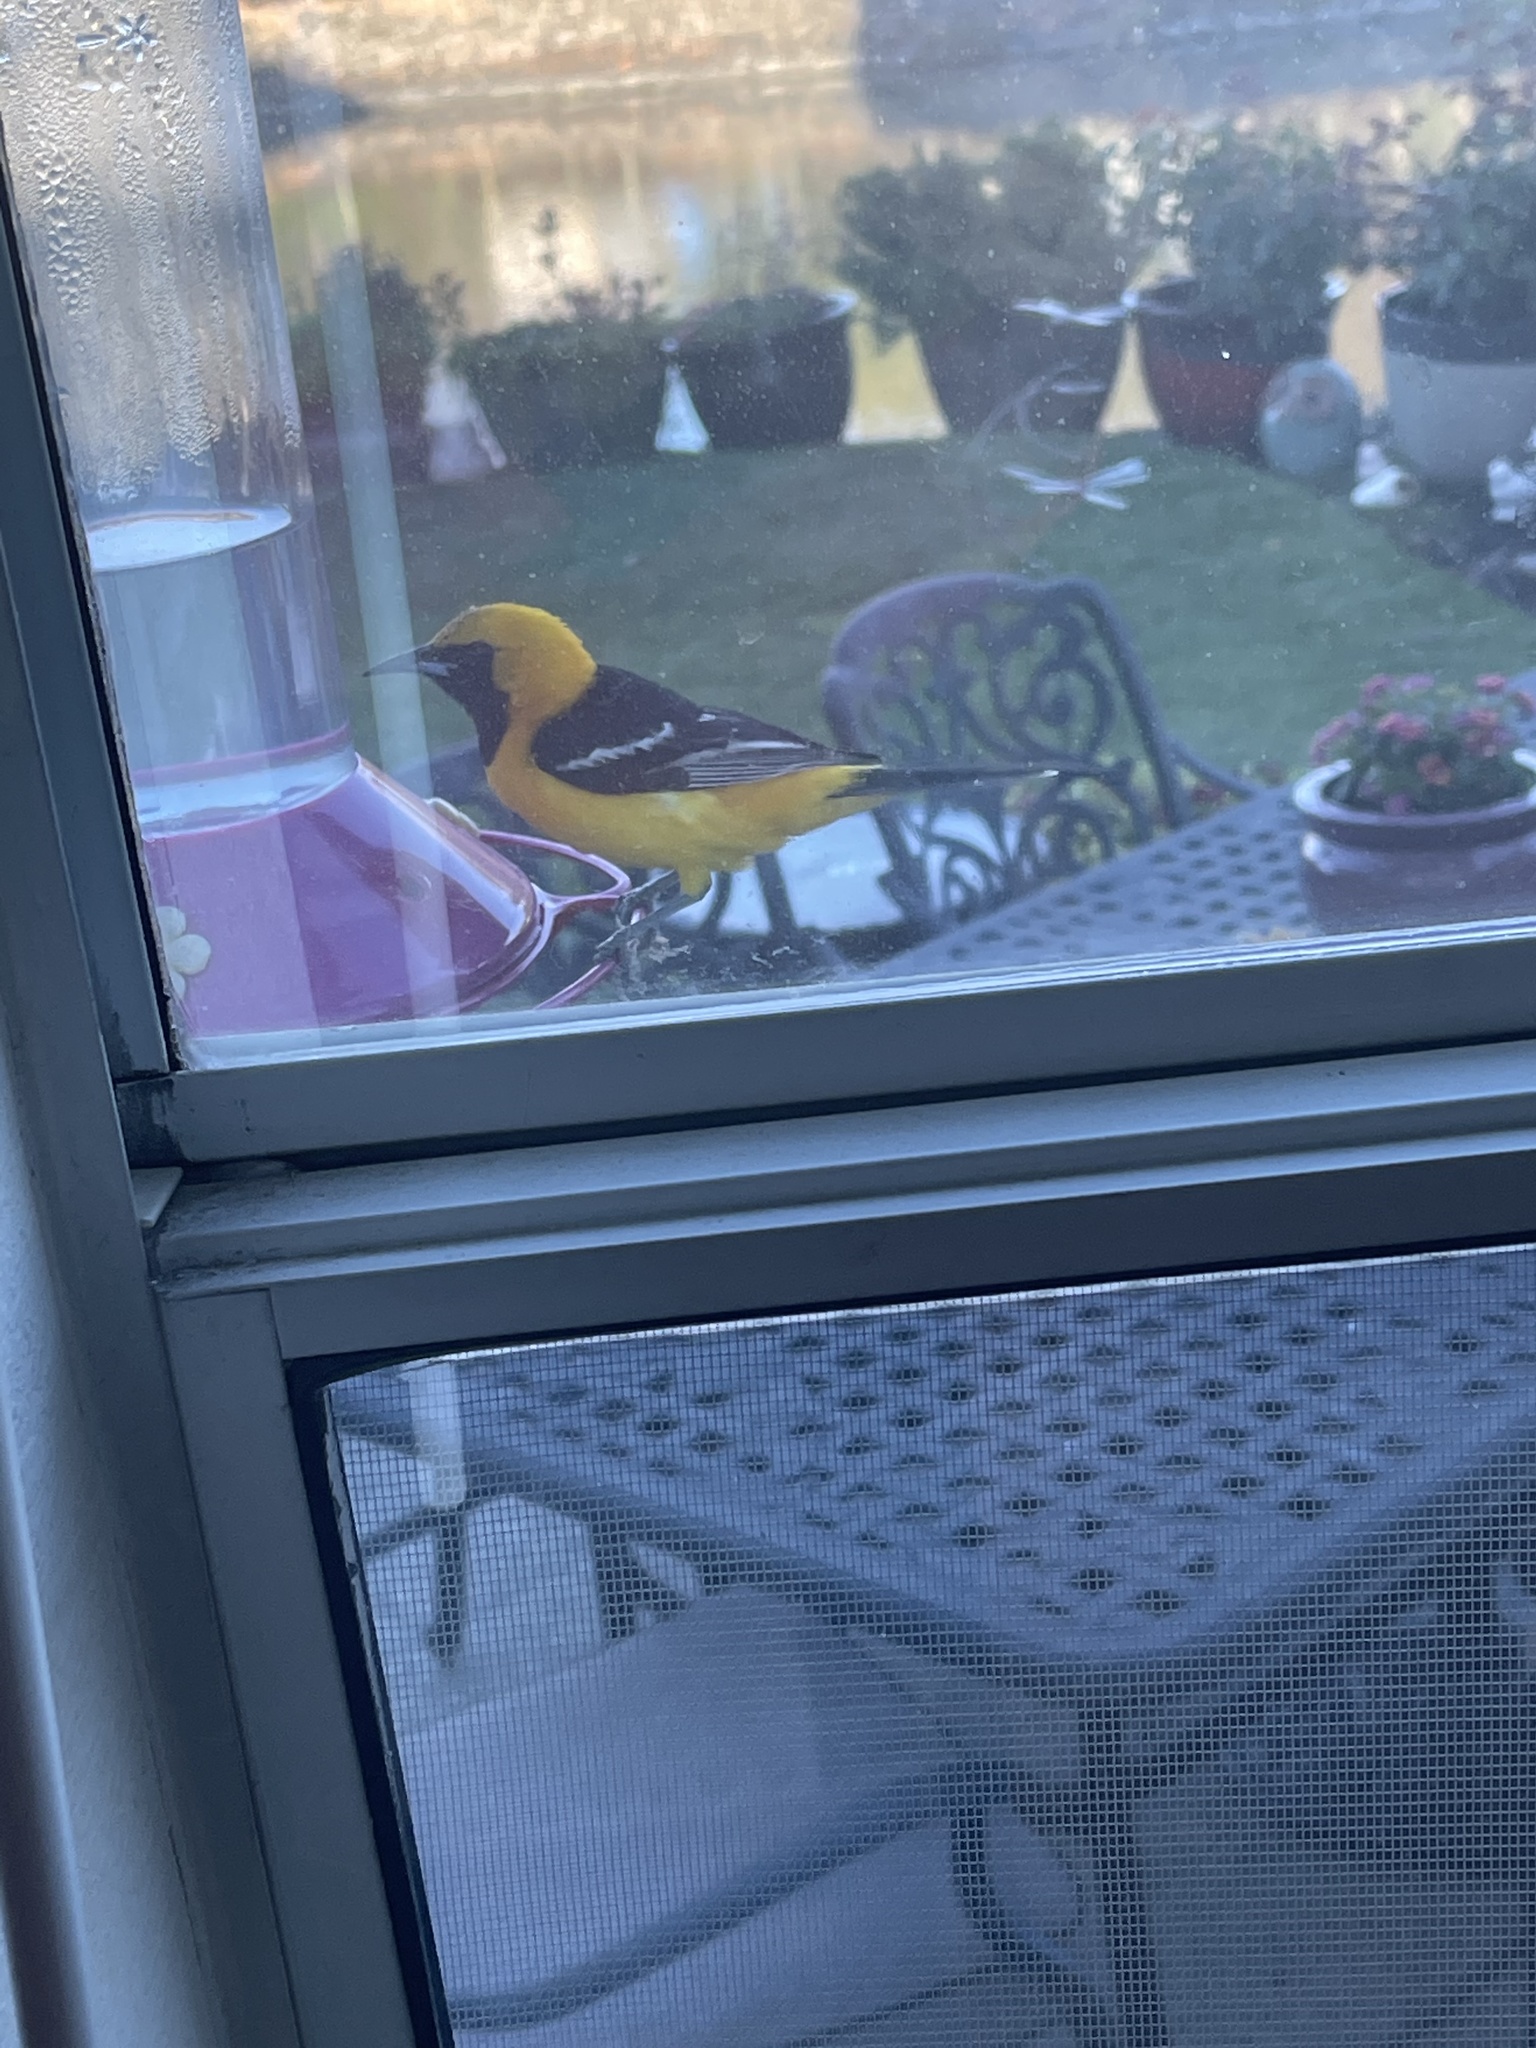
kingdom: Animalia
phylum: Chordata
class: Aves
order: Passeriformes
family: Icteridae
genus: Icterus
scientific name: Icterus cucullatus
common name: Hooded oriole
